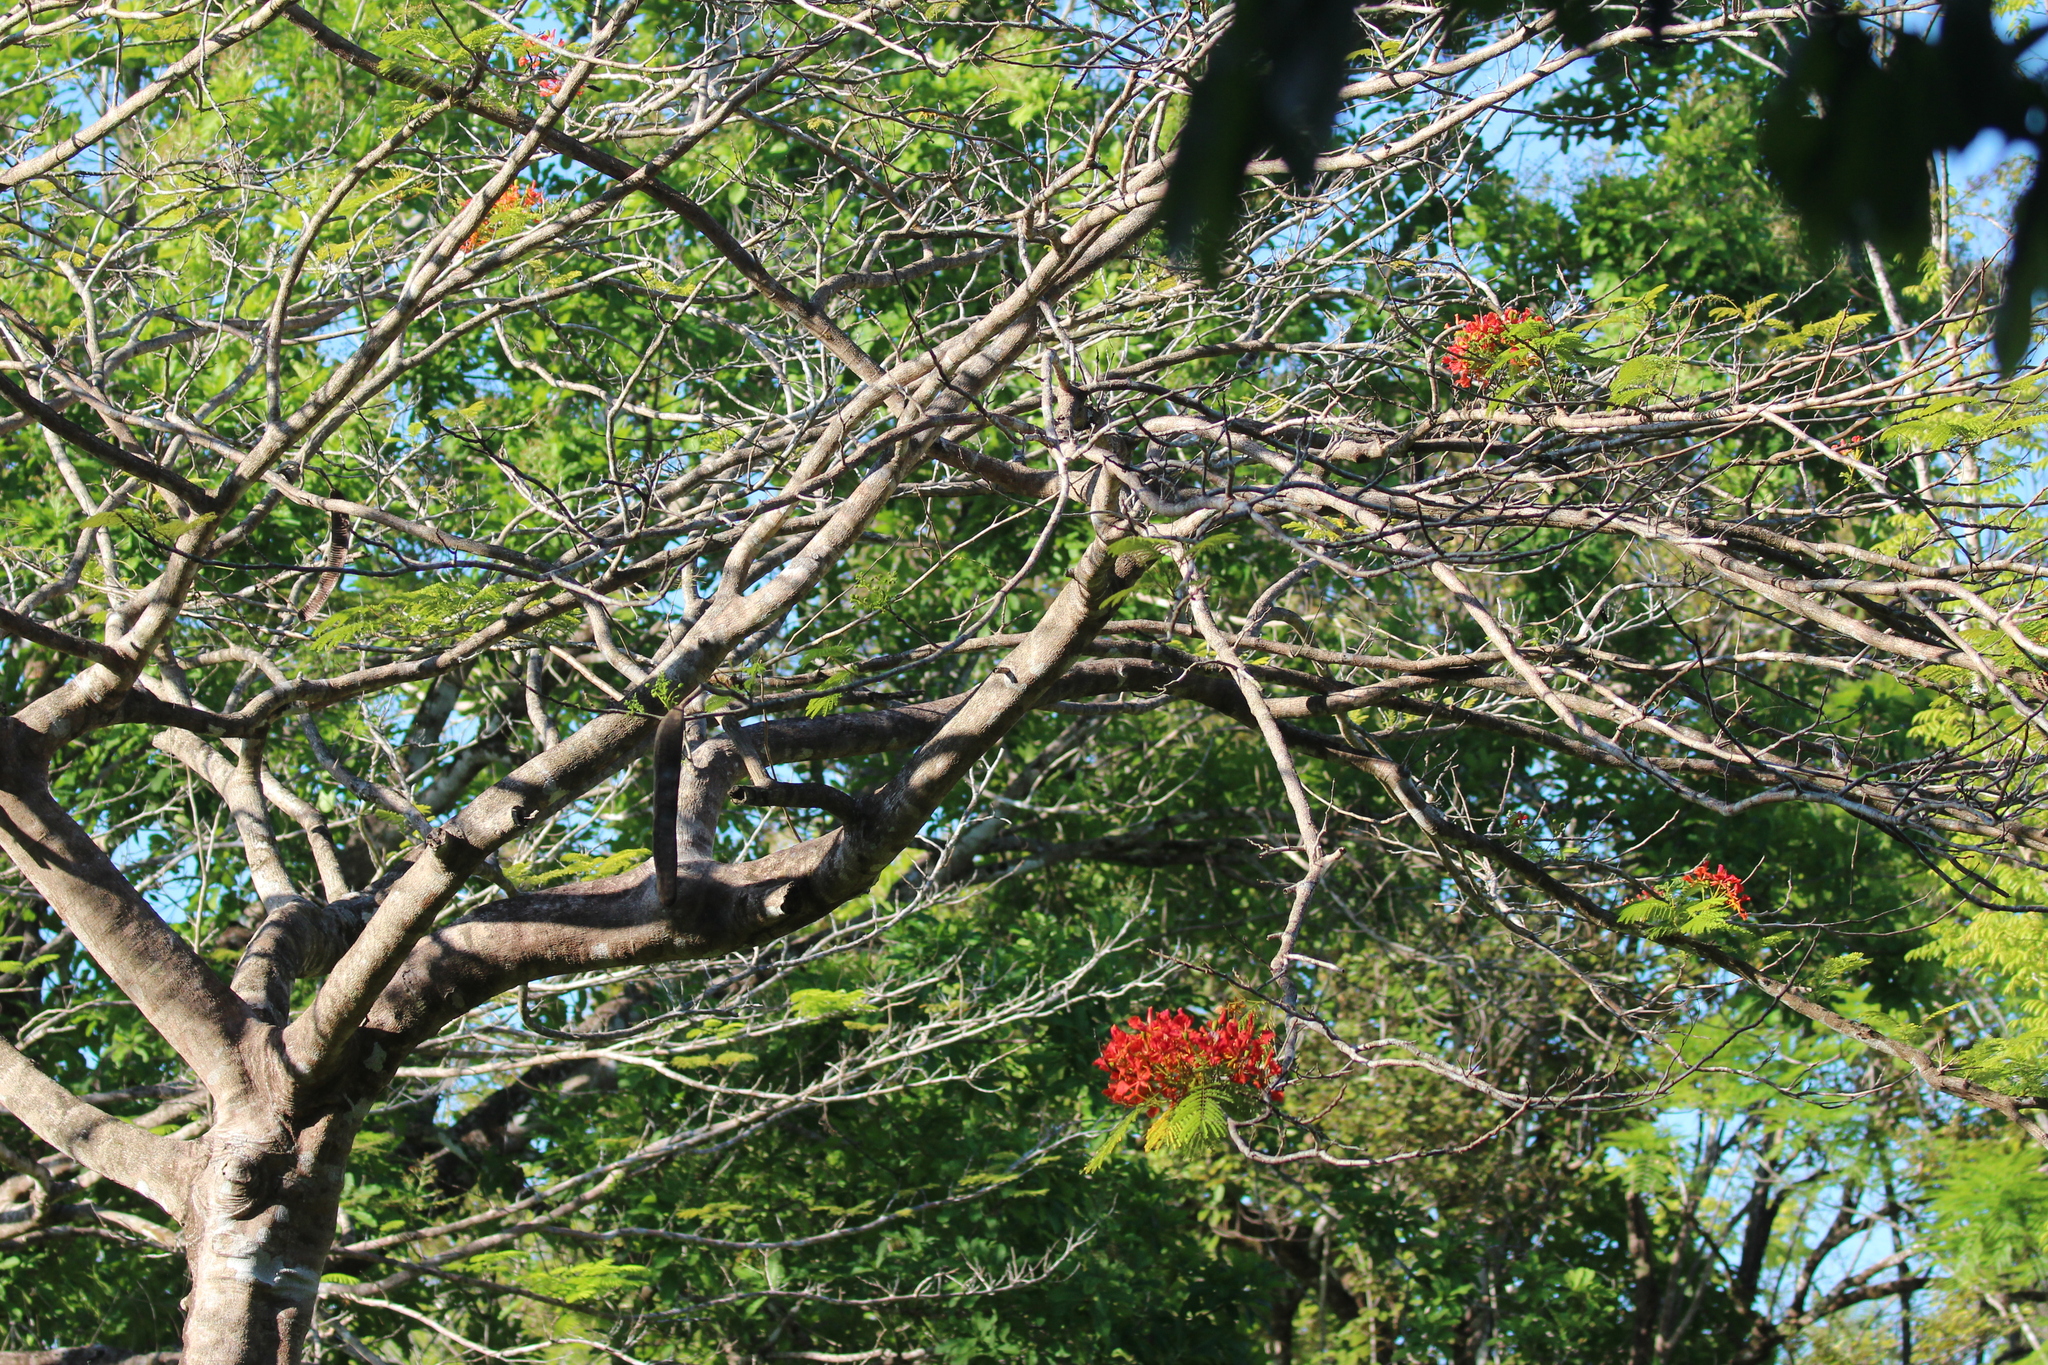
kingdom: Plantae
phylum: Tracheophyta
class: Magnoliopsida
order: Fabales
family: Fabaceae
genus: Delonix
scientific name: Delonix regia
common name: Royal poinciana
